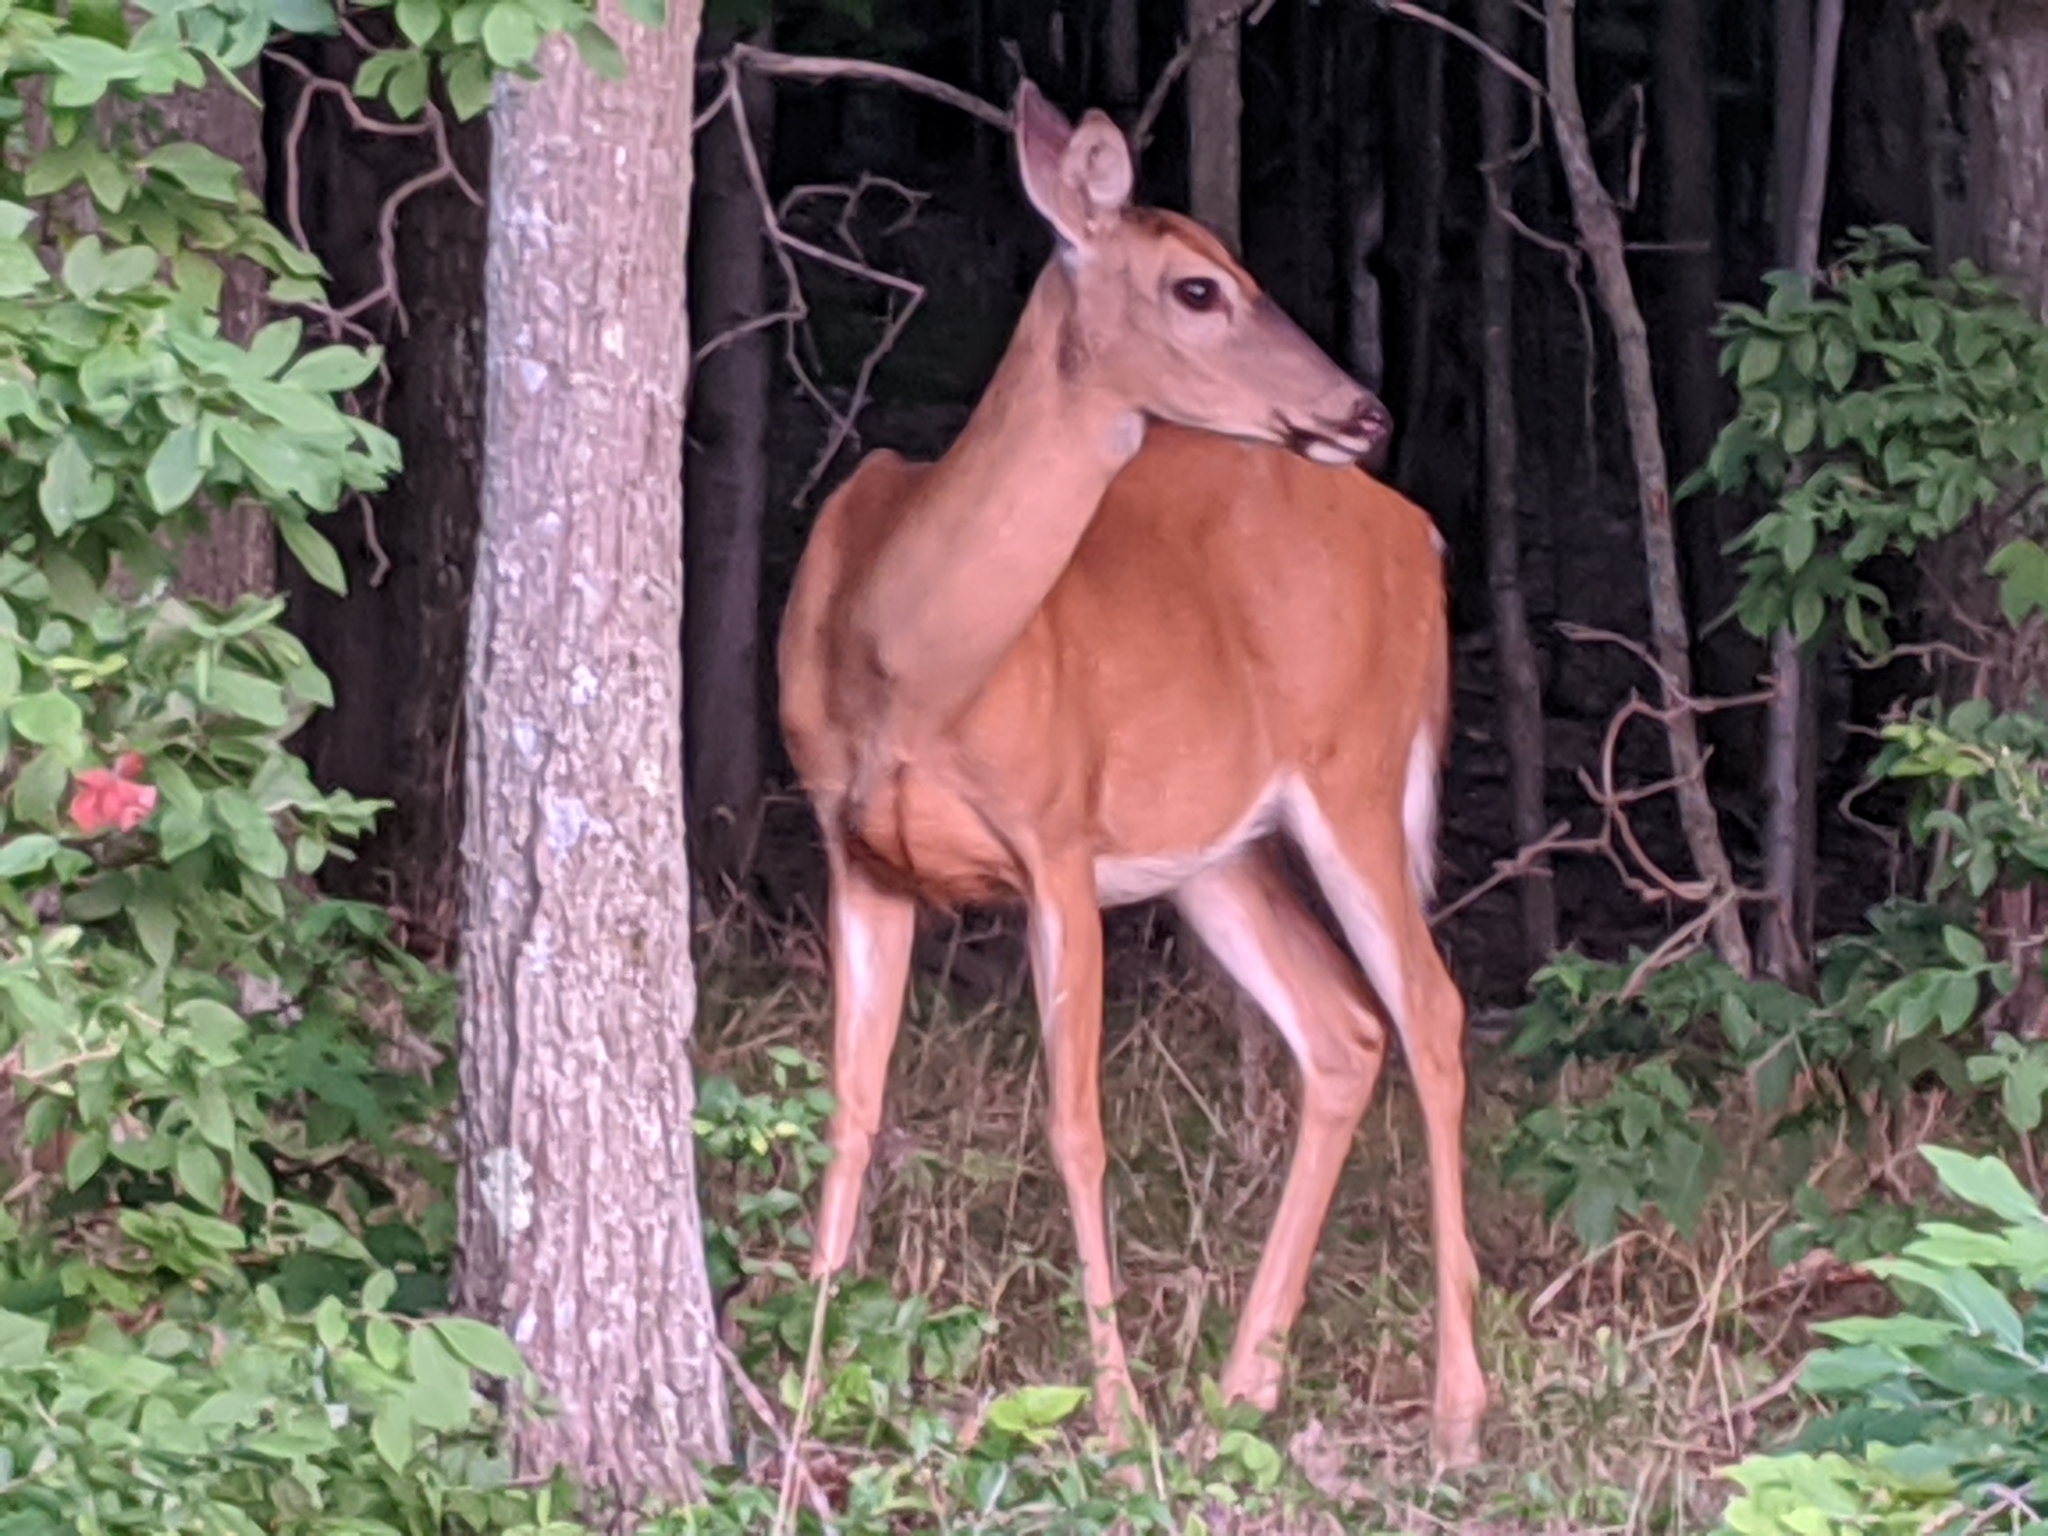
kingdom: Animalia
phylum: Chordata
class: Mammalia
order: Artiodactyla
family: Cervidae
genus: Odocoileus
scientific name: Odocoileus virginianus
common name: White-tailed deer
